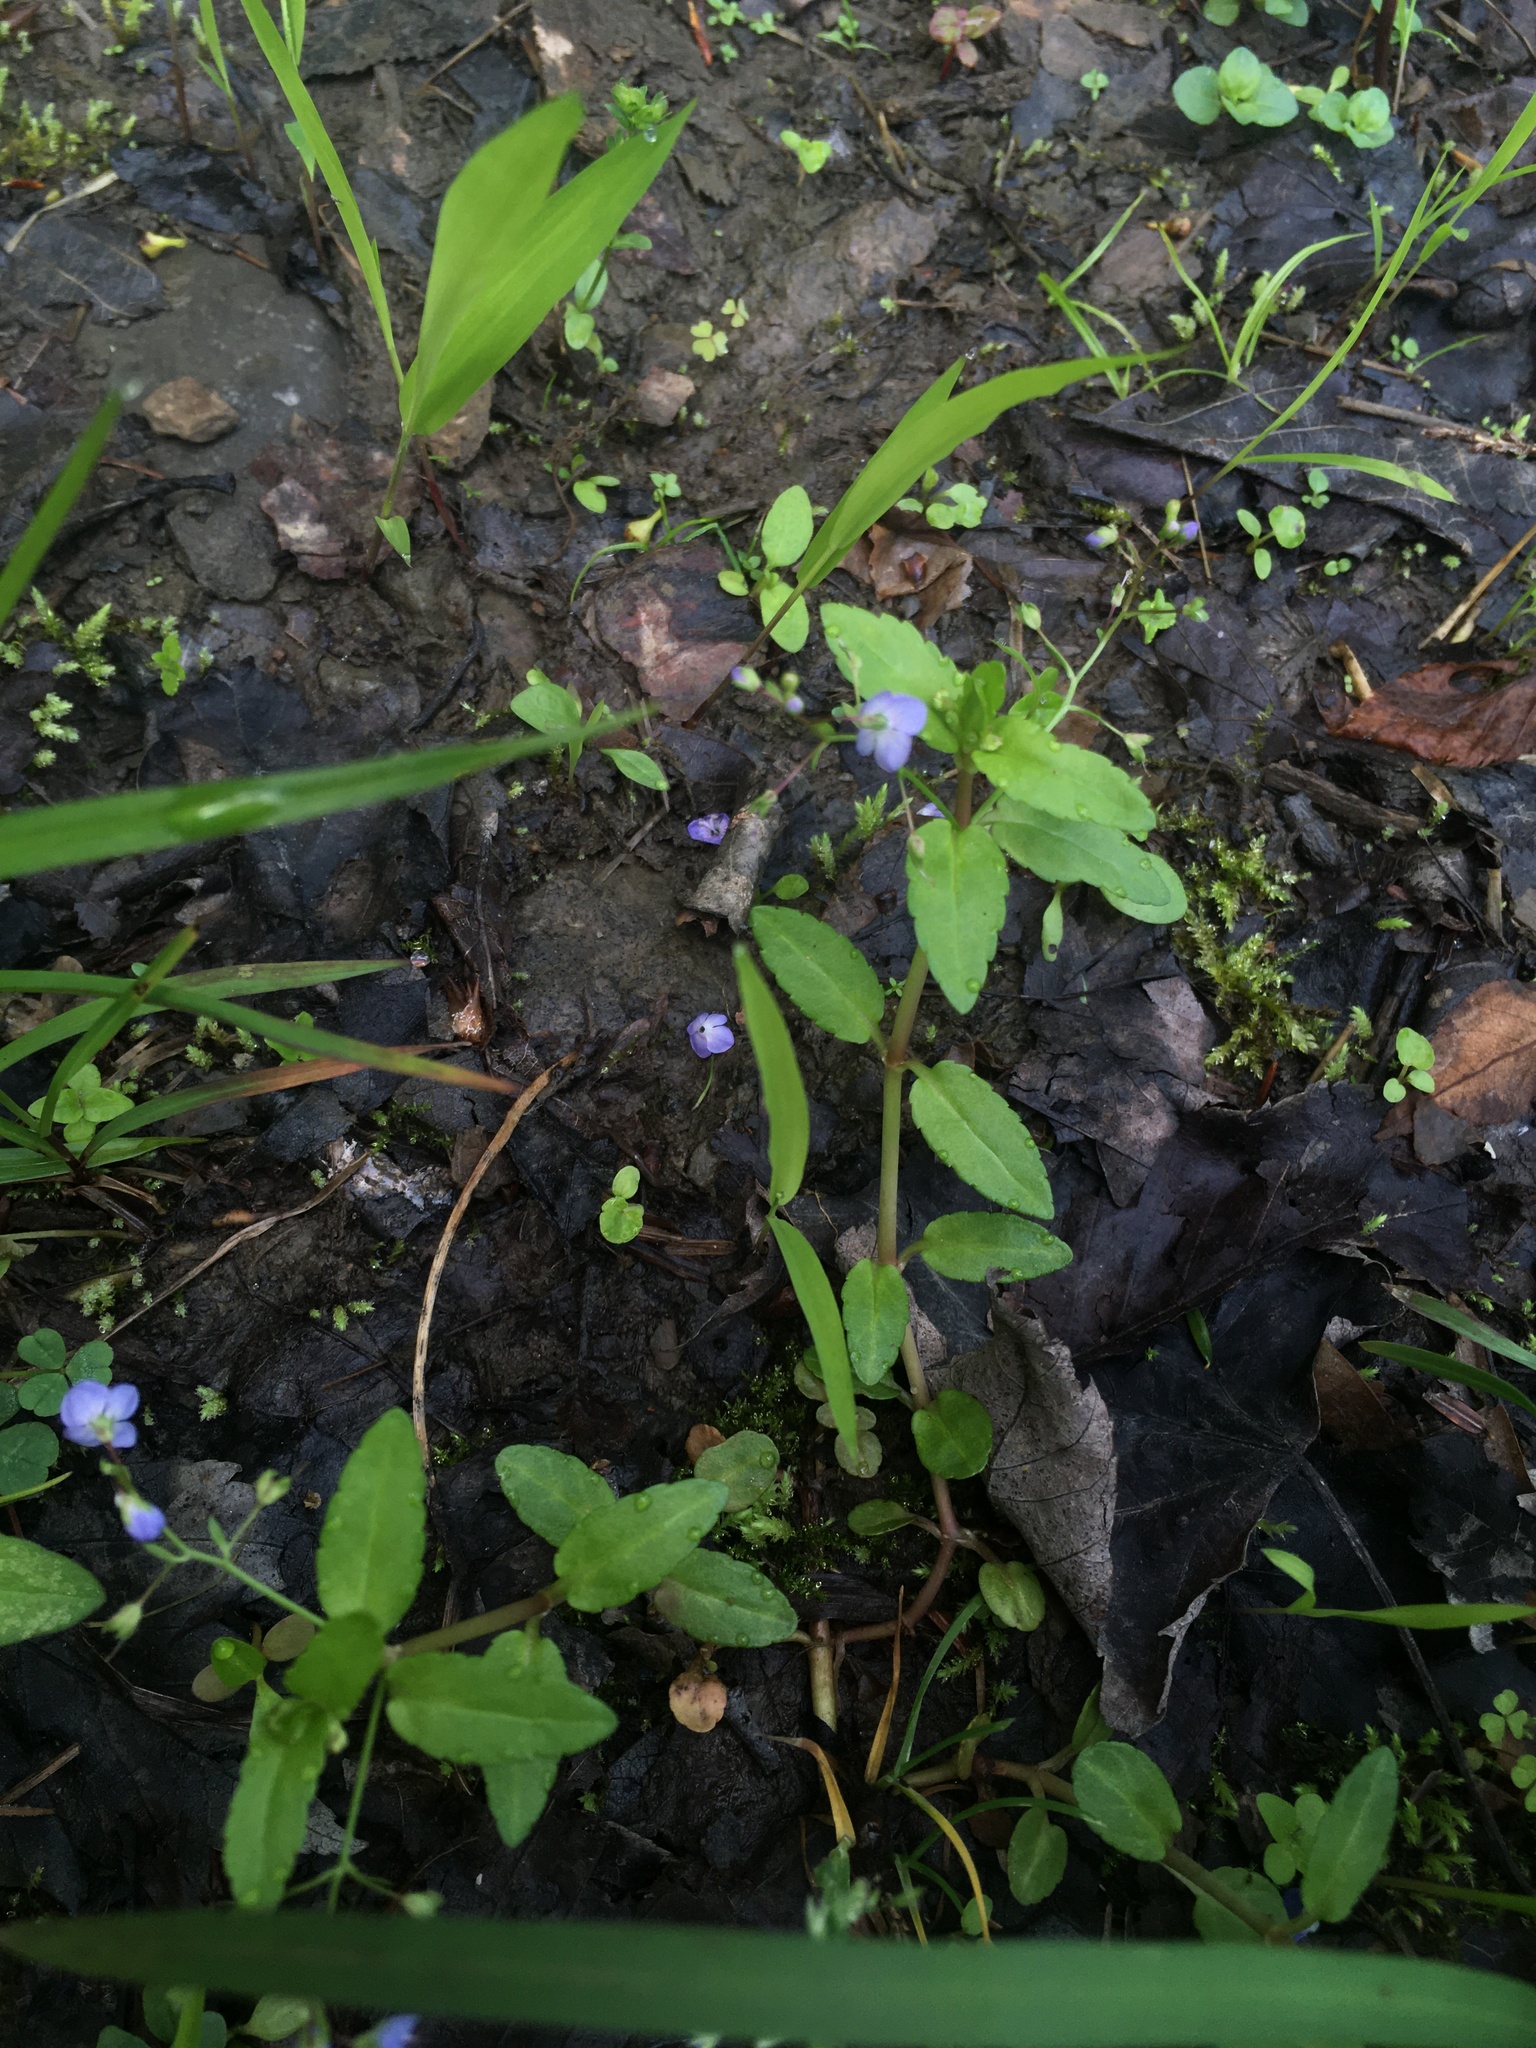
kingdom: Plantae
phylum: Tracheophyta
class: Magnoliopsida
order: Lamiales
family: Plantaginaceae
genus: Veronica
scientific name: Veronica americana
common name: American brooklime
